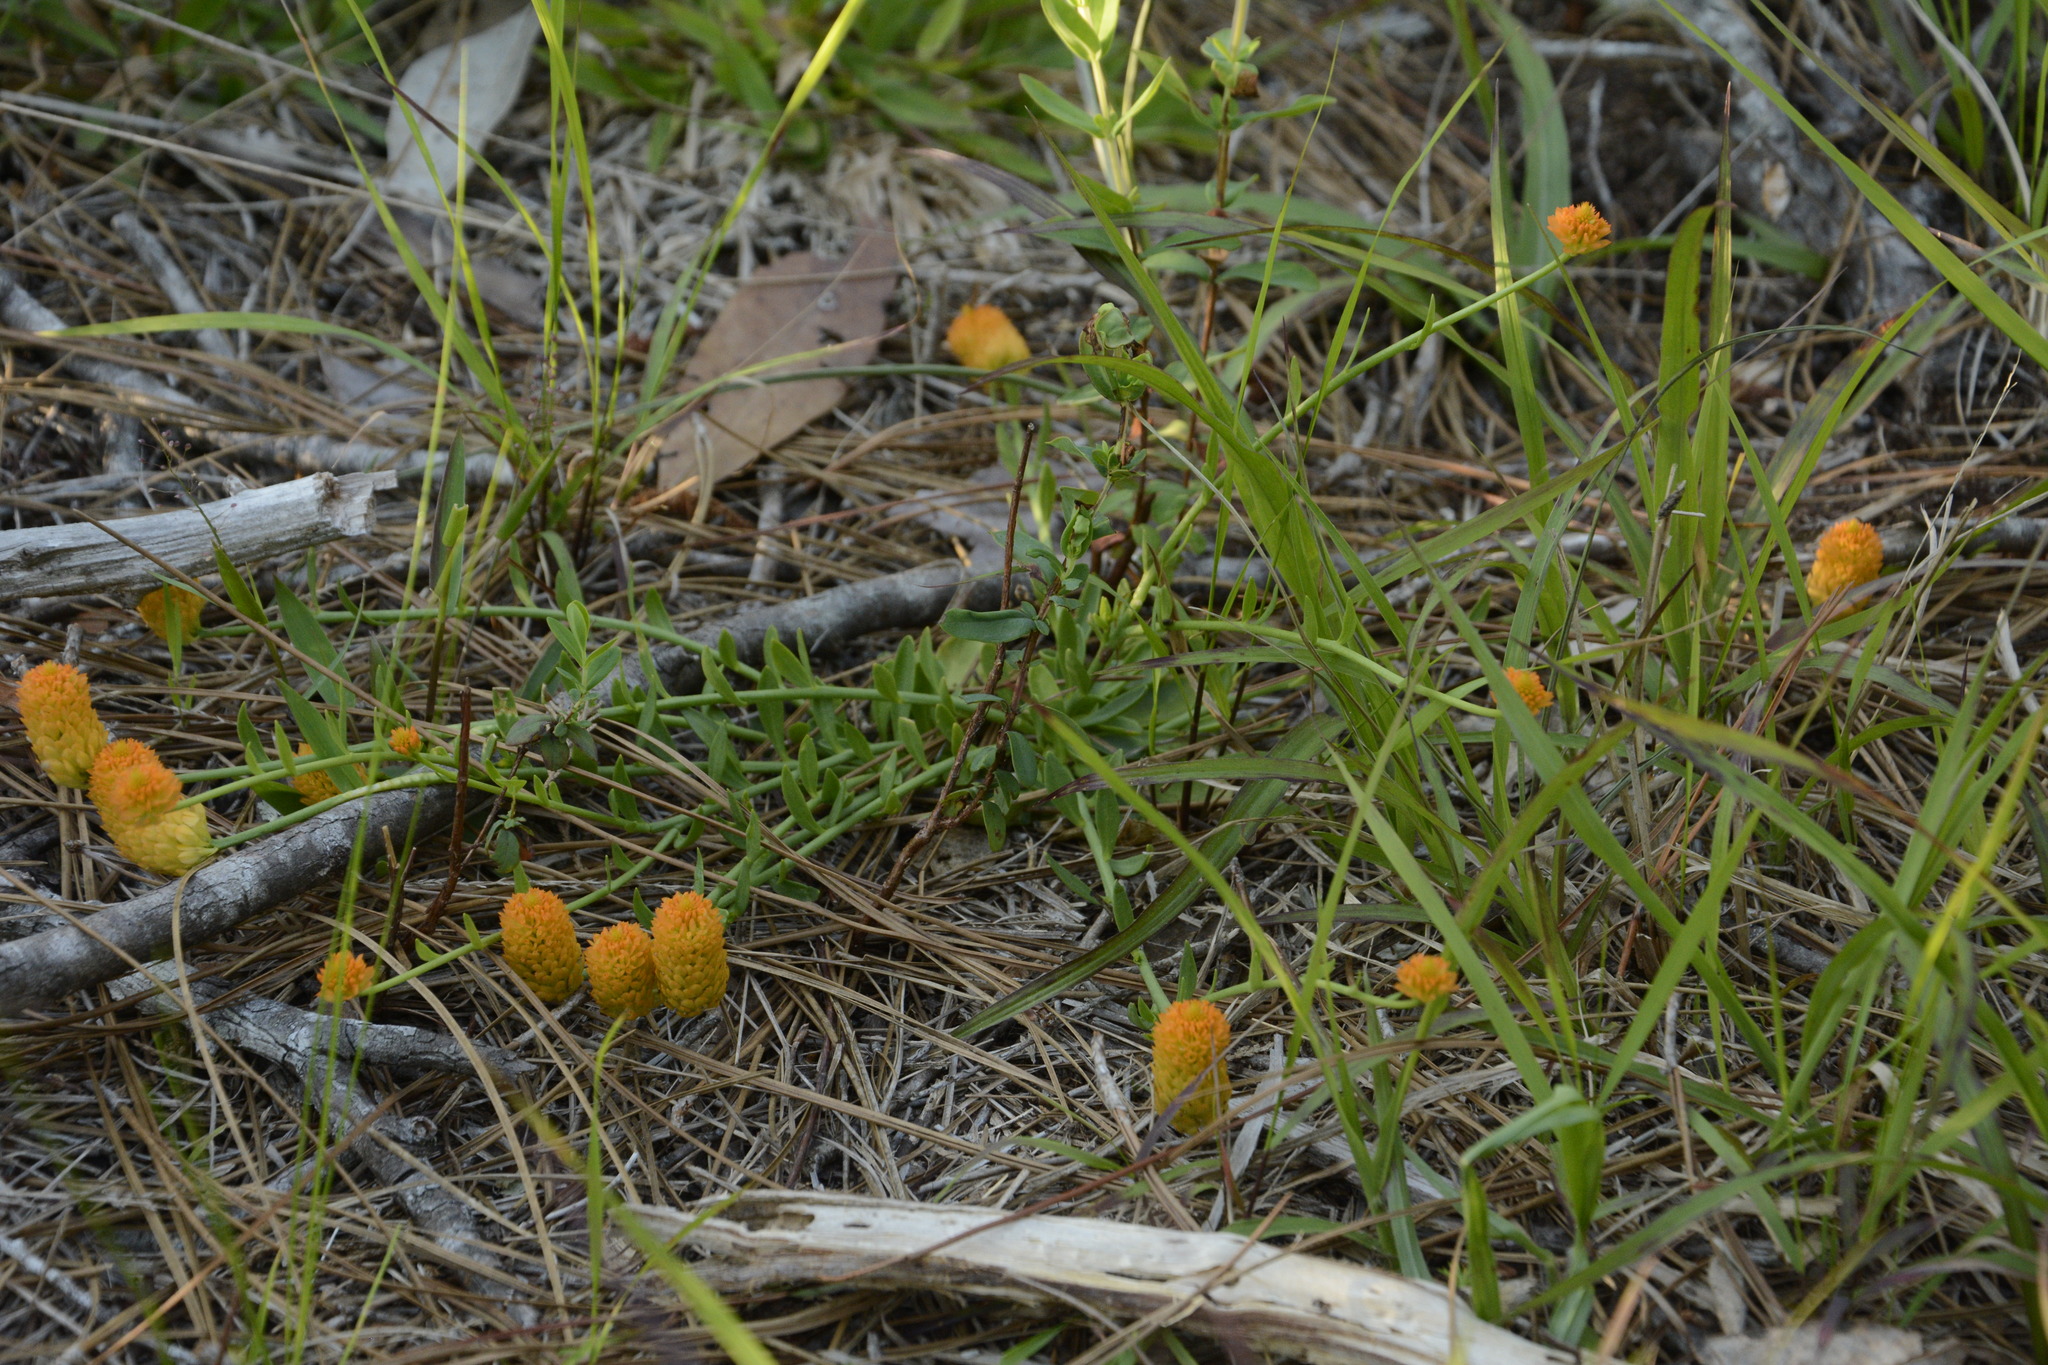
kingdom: Plantae
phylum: Tracheophyta
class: Magnoliopsida
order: Fabales
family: Polygalaceae
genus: Polygala
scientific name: Polygala lutea
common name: Orange milkwort
